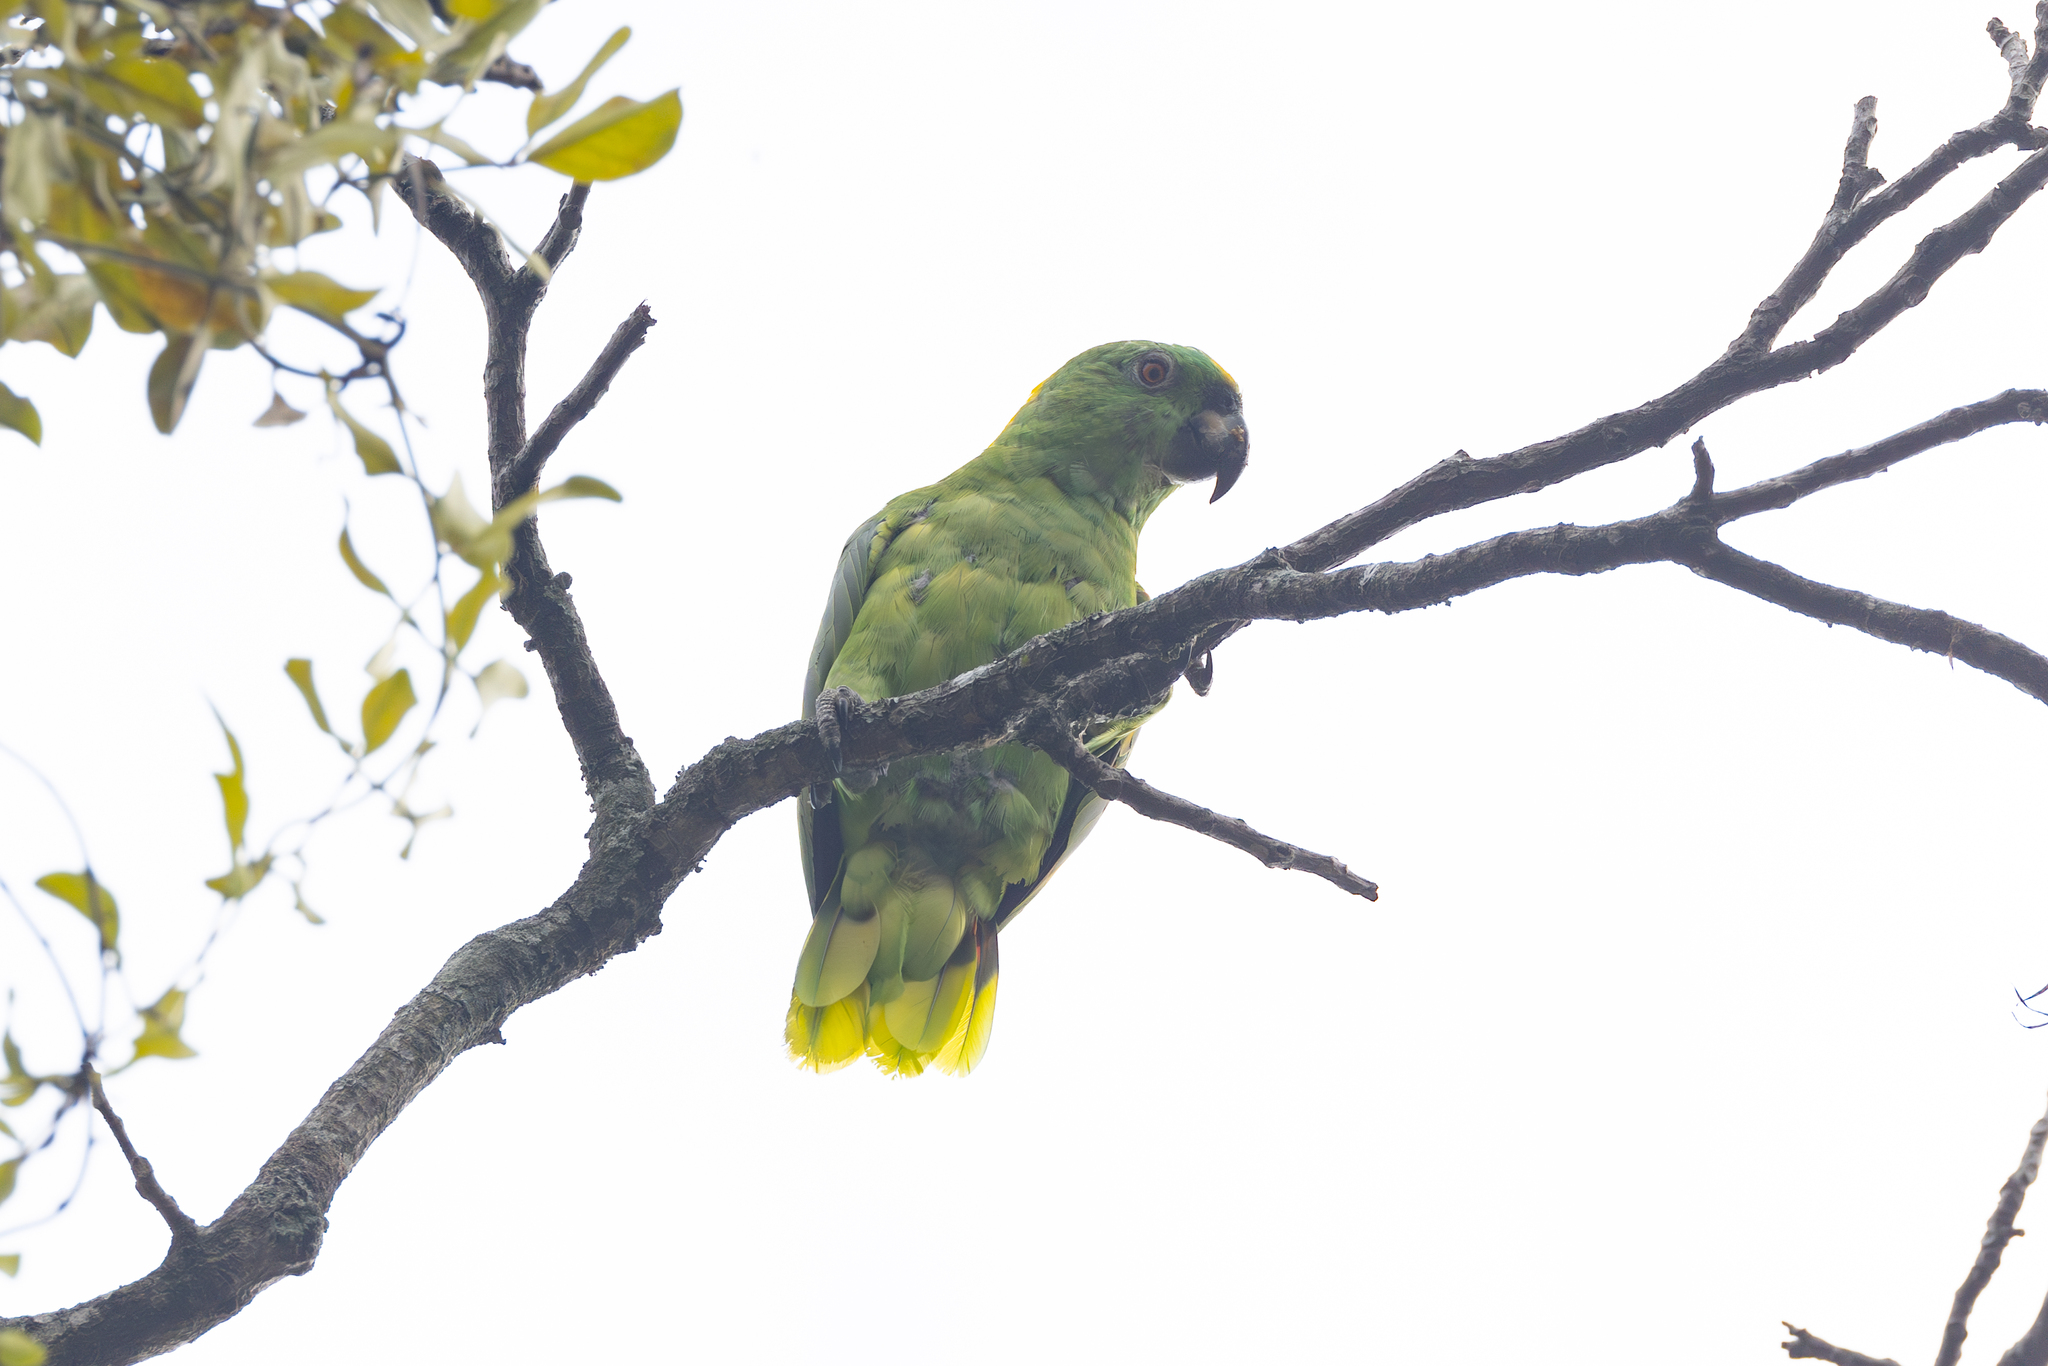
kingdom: Animalia
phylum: Chordata
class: Aves
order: Psittaciformes
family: Psittacidae
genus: Amazona
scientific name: Amazona auropalliata
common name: Yellow-naped amazon
